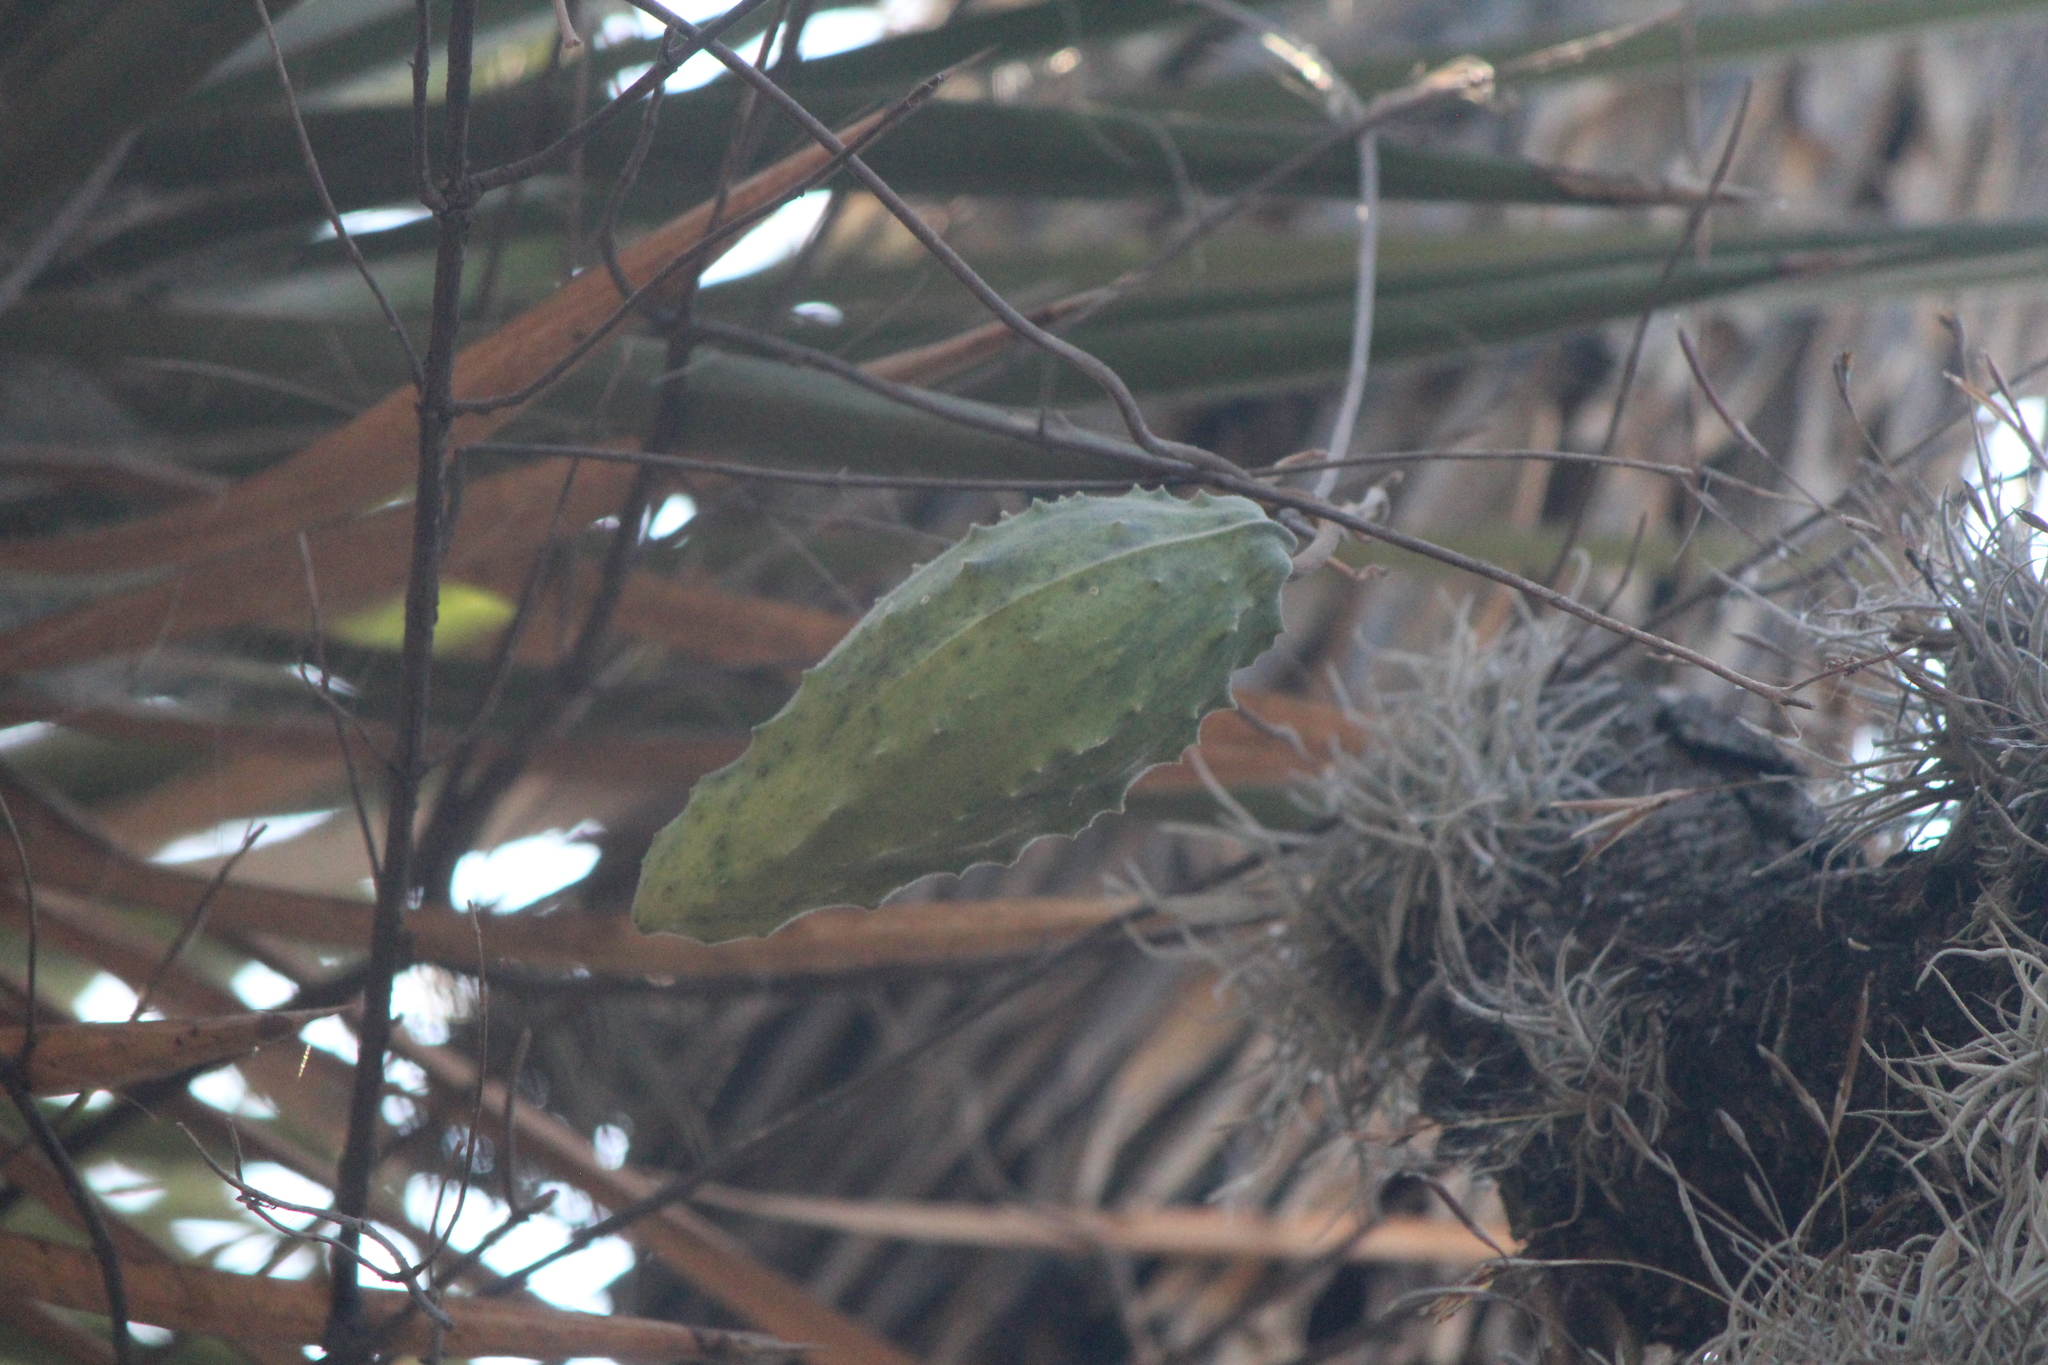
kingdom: Plantae
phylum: Tracheophyta
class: Magnoliopsida
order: Gentianales
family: Apocynaceae
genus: Gonolobus
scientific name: Gonolobus grandiflorus
